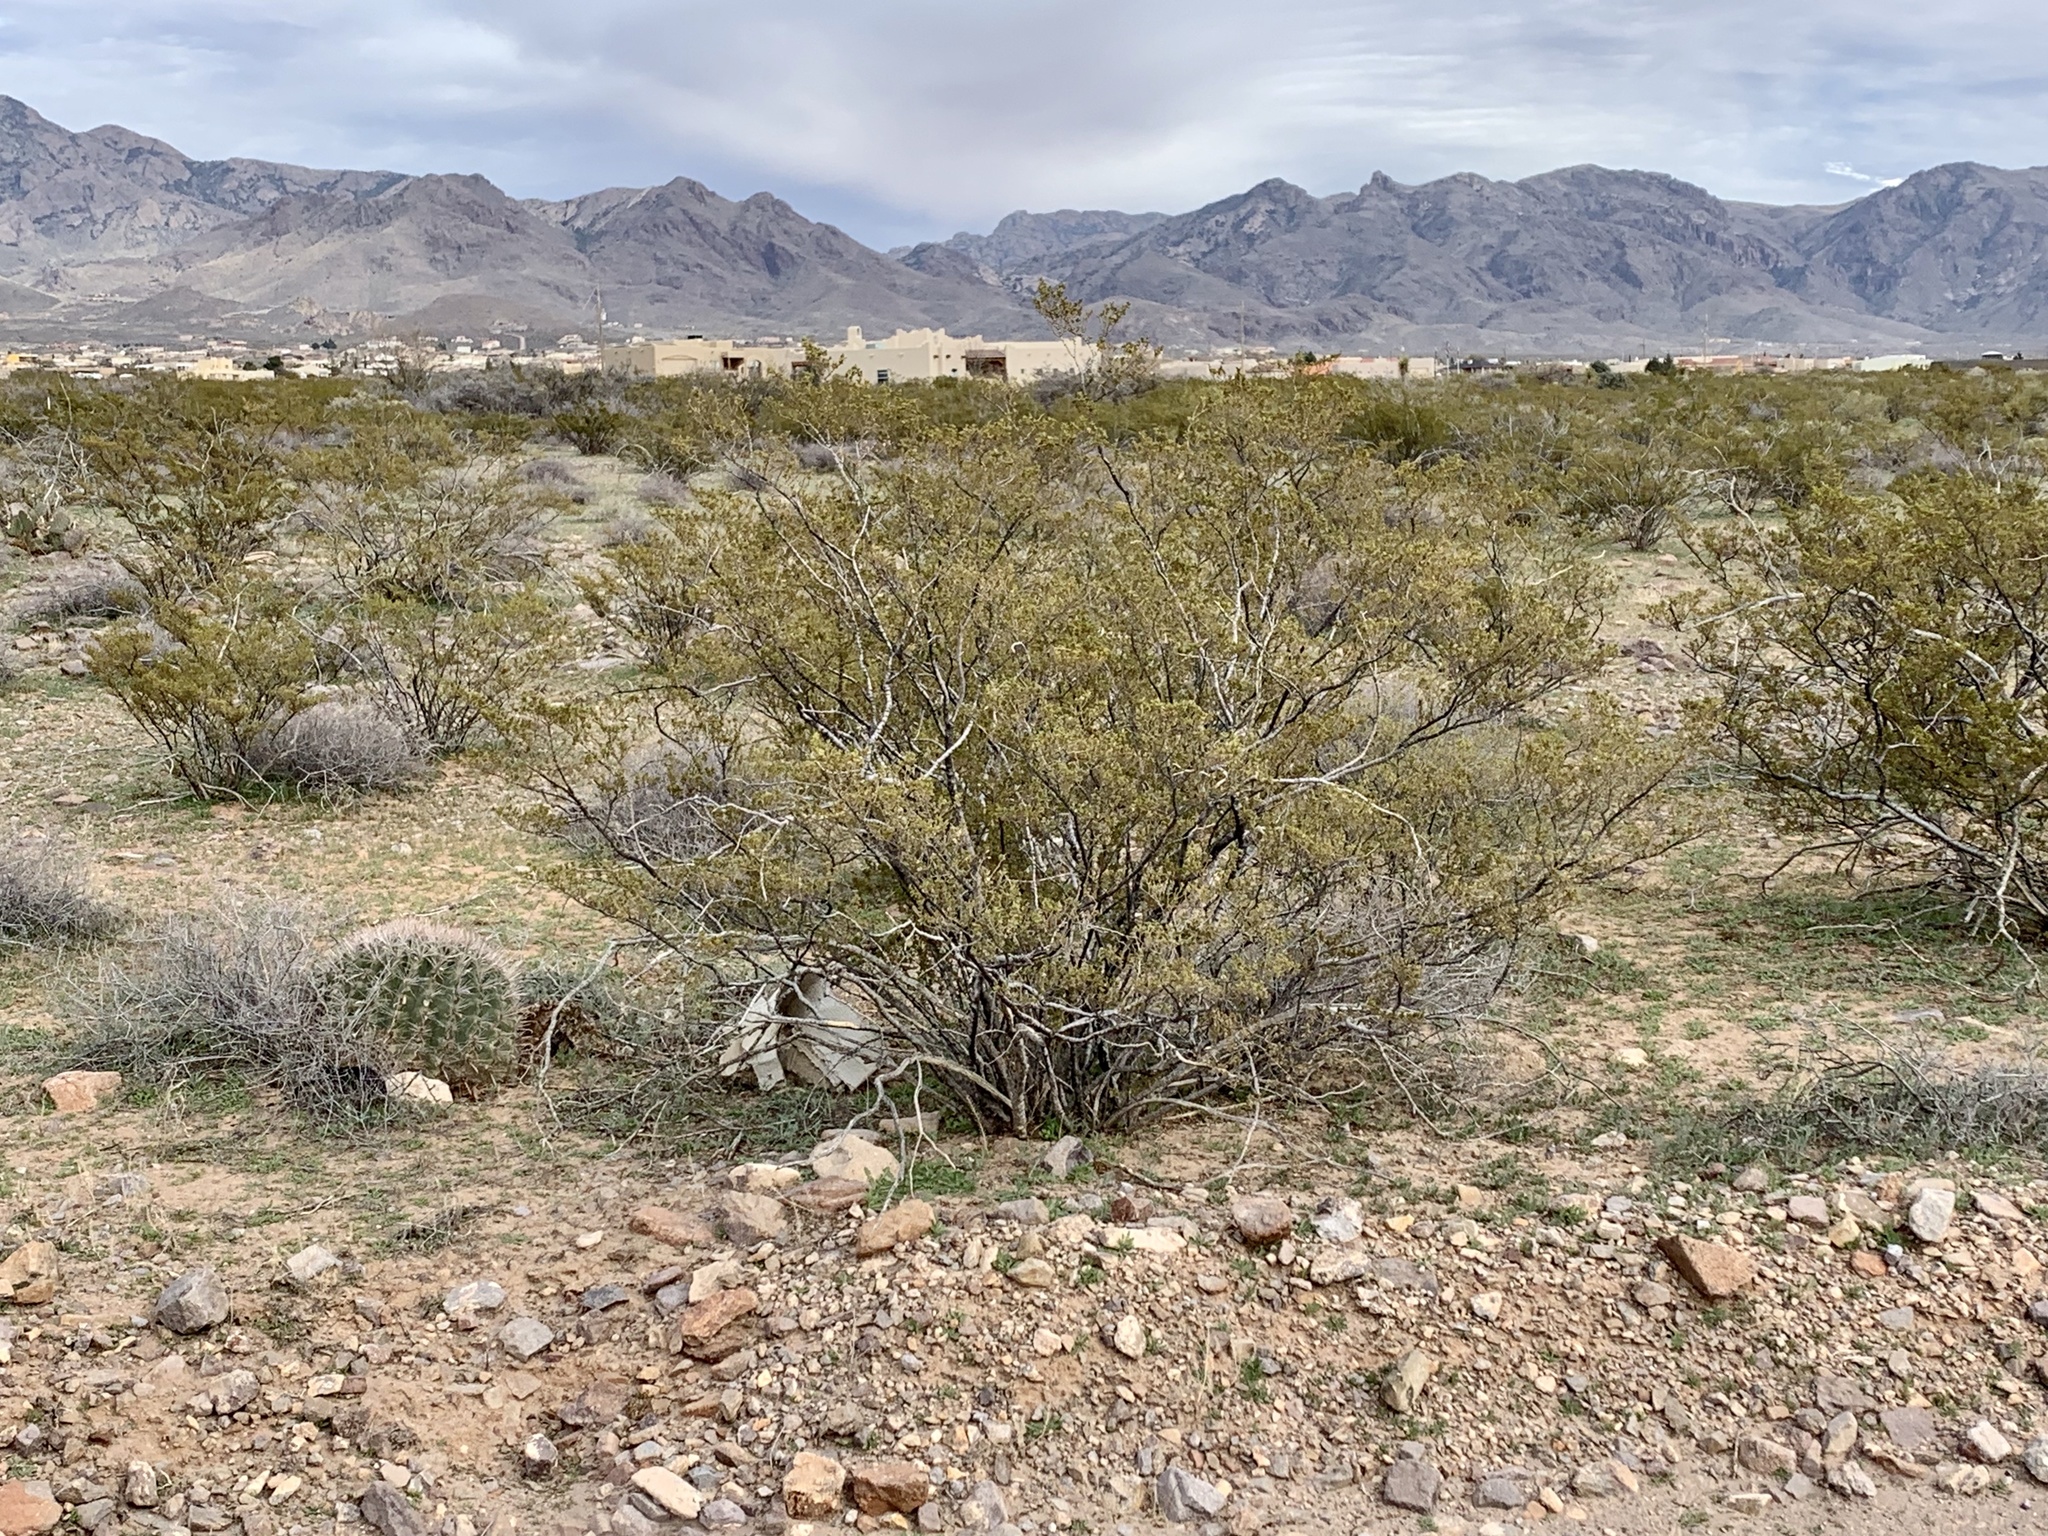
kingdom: Plantae
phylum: Tracheophyta
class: Magnoliopsida
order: Zygophyllales
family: Zygophyllaceae
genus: Larrea
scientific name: Larrea tridentata
